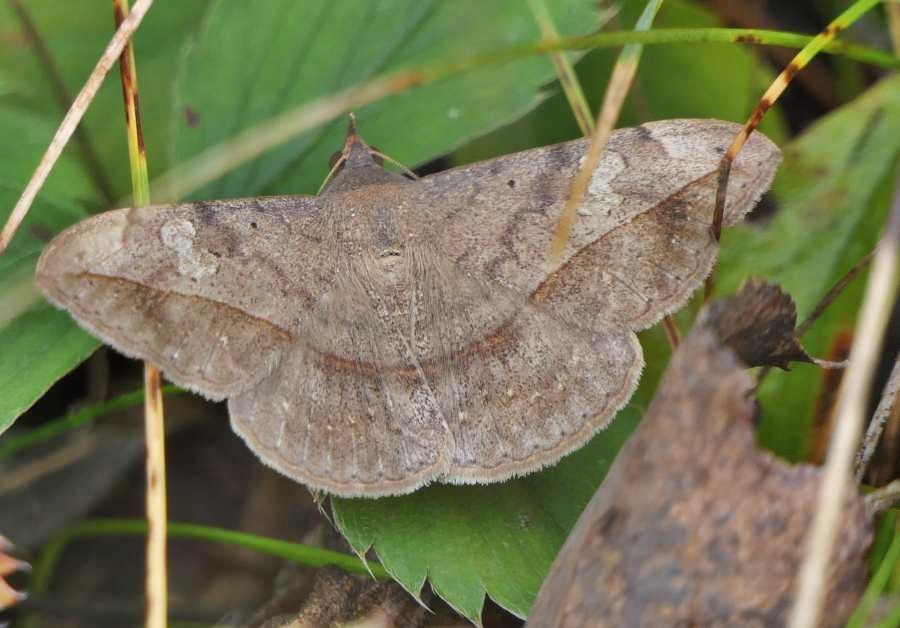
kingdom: Animalia
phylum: Arthropoda
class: Insecta
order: Lepidoptera
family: Erebidae
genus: Anticarsia
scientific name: Anticarsia gemmatalis
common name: Cutworm moth
